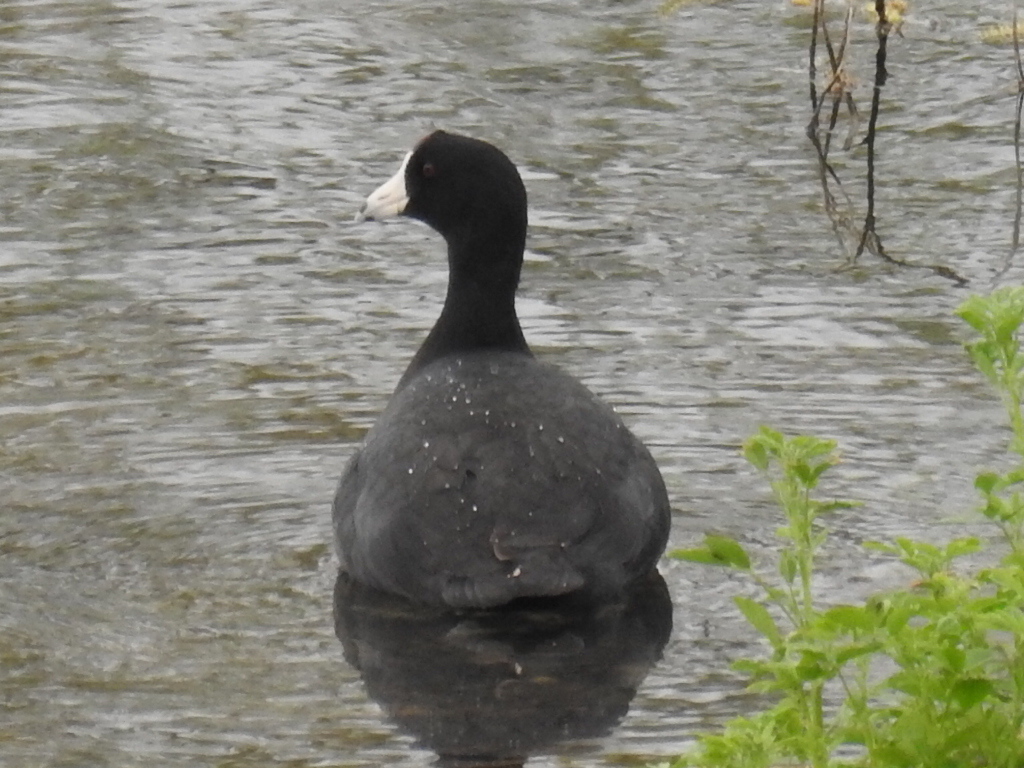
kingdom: Animalia
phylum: Chordata
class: Aves
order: Gruiformes
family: Rallidae
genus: Fulica
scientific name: Fulica americana
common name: American coot
